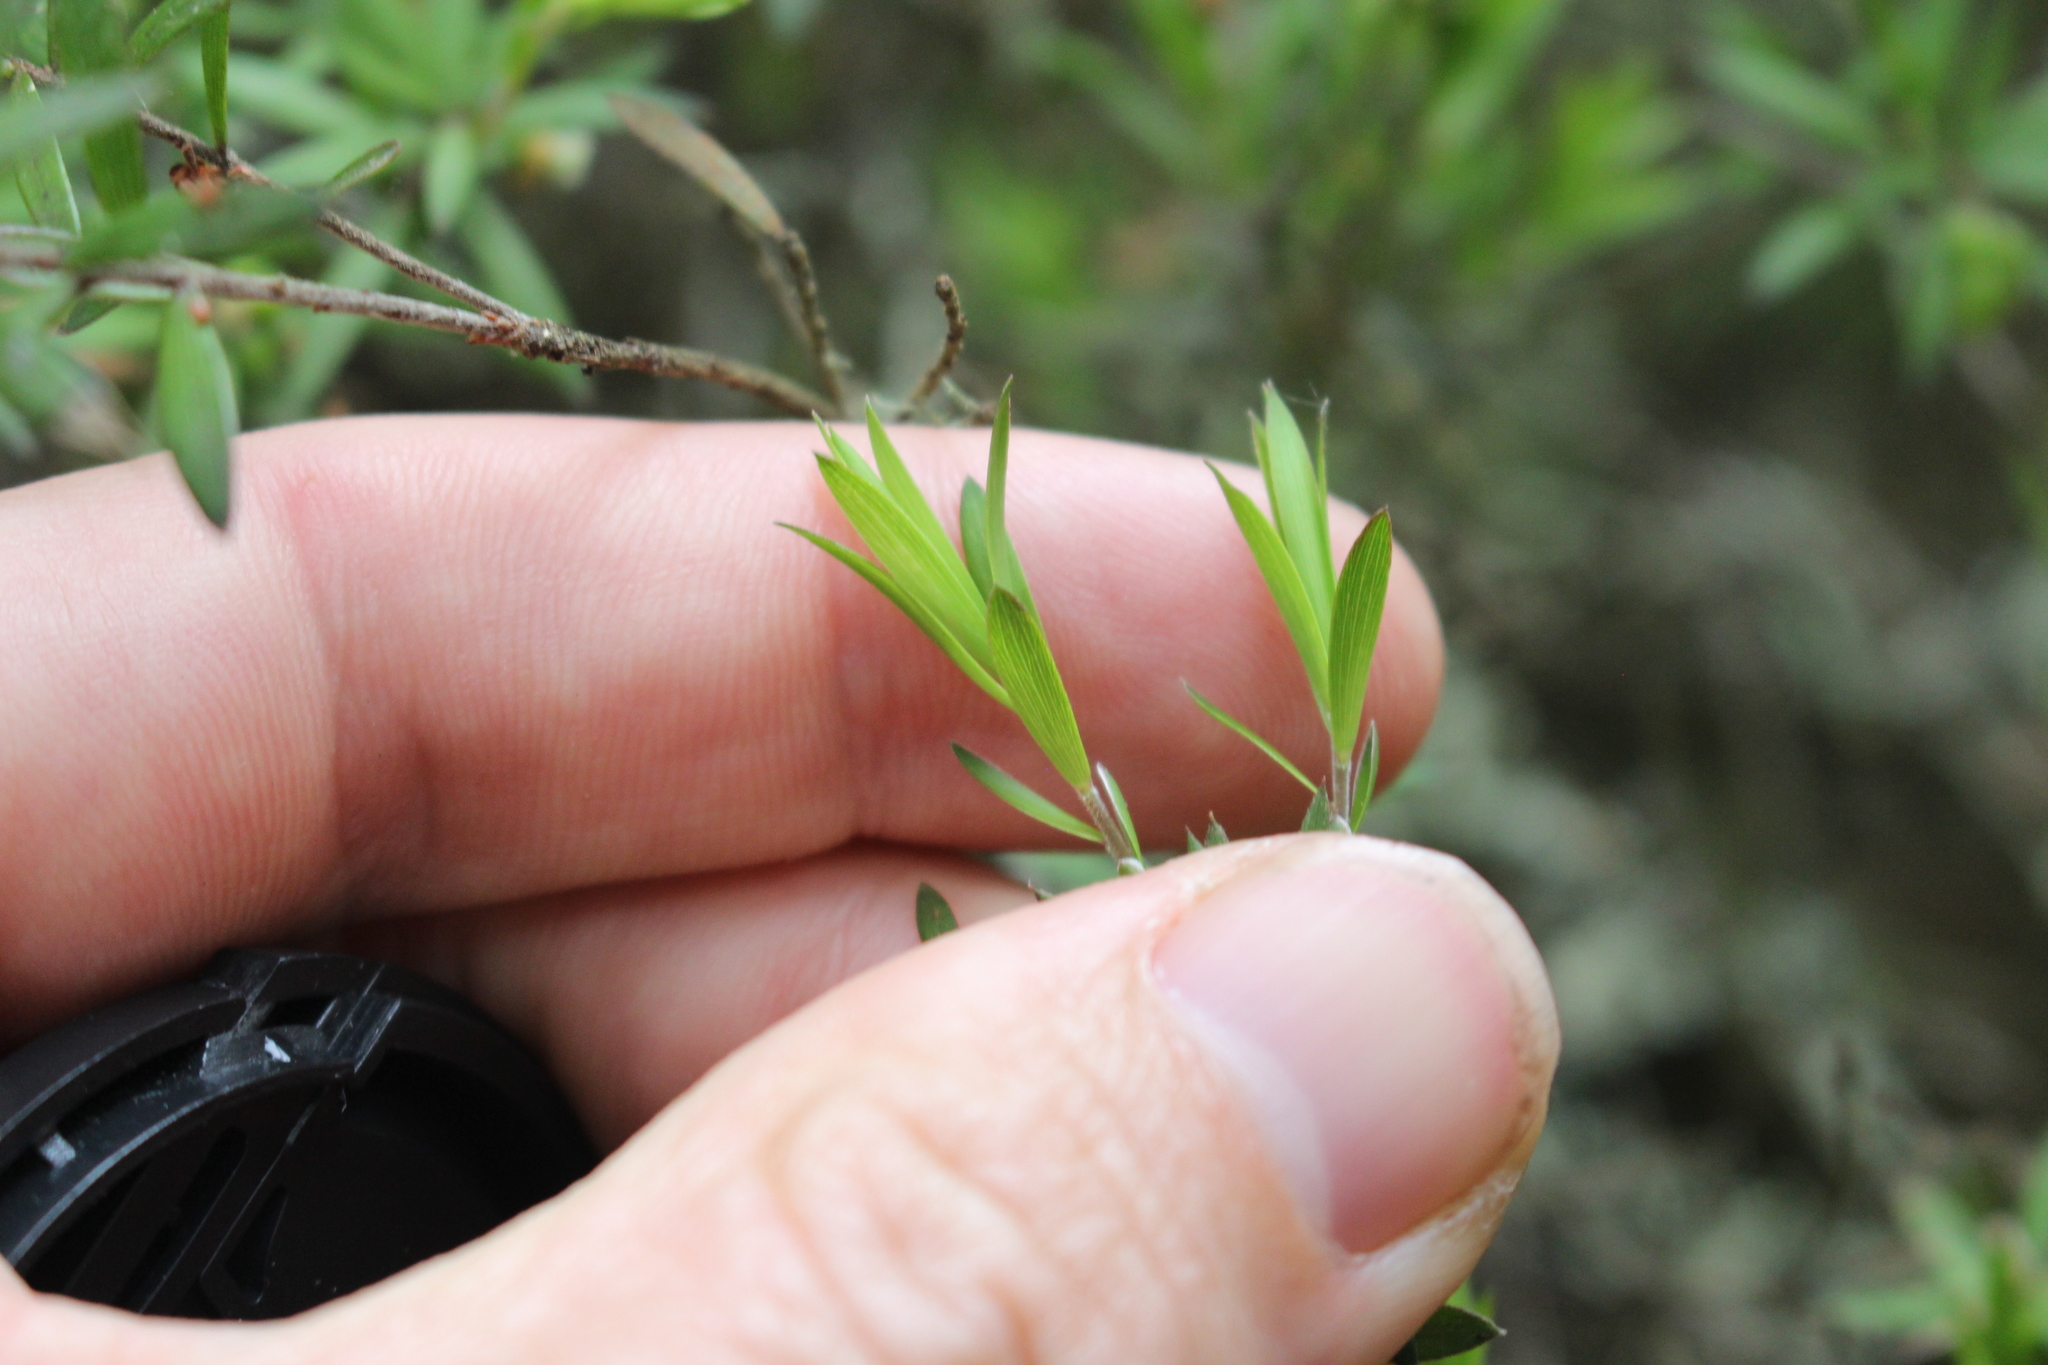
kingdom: Plantae
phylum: Tracheophyta
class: Magnoliopsida
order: Ericales
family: Ericaceae
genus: Leucopogon
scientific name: Leucopogon fasciculatus
